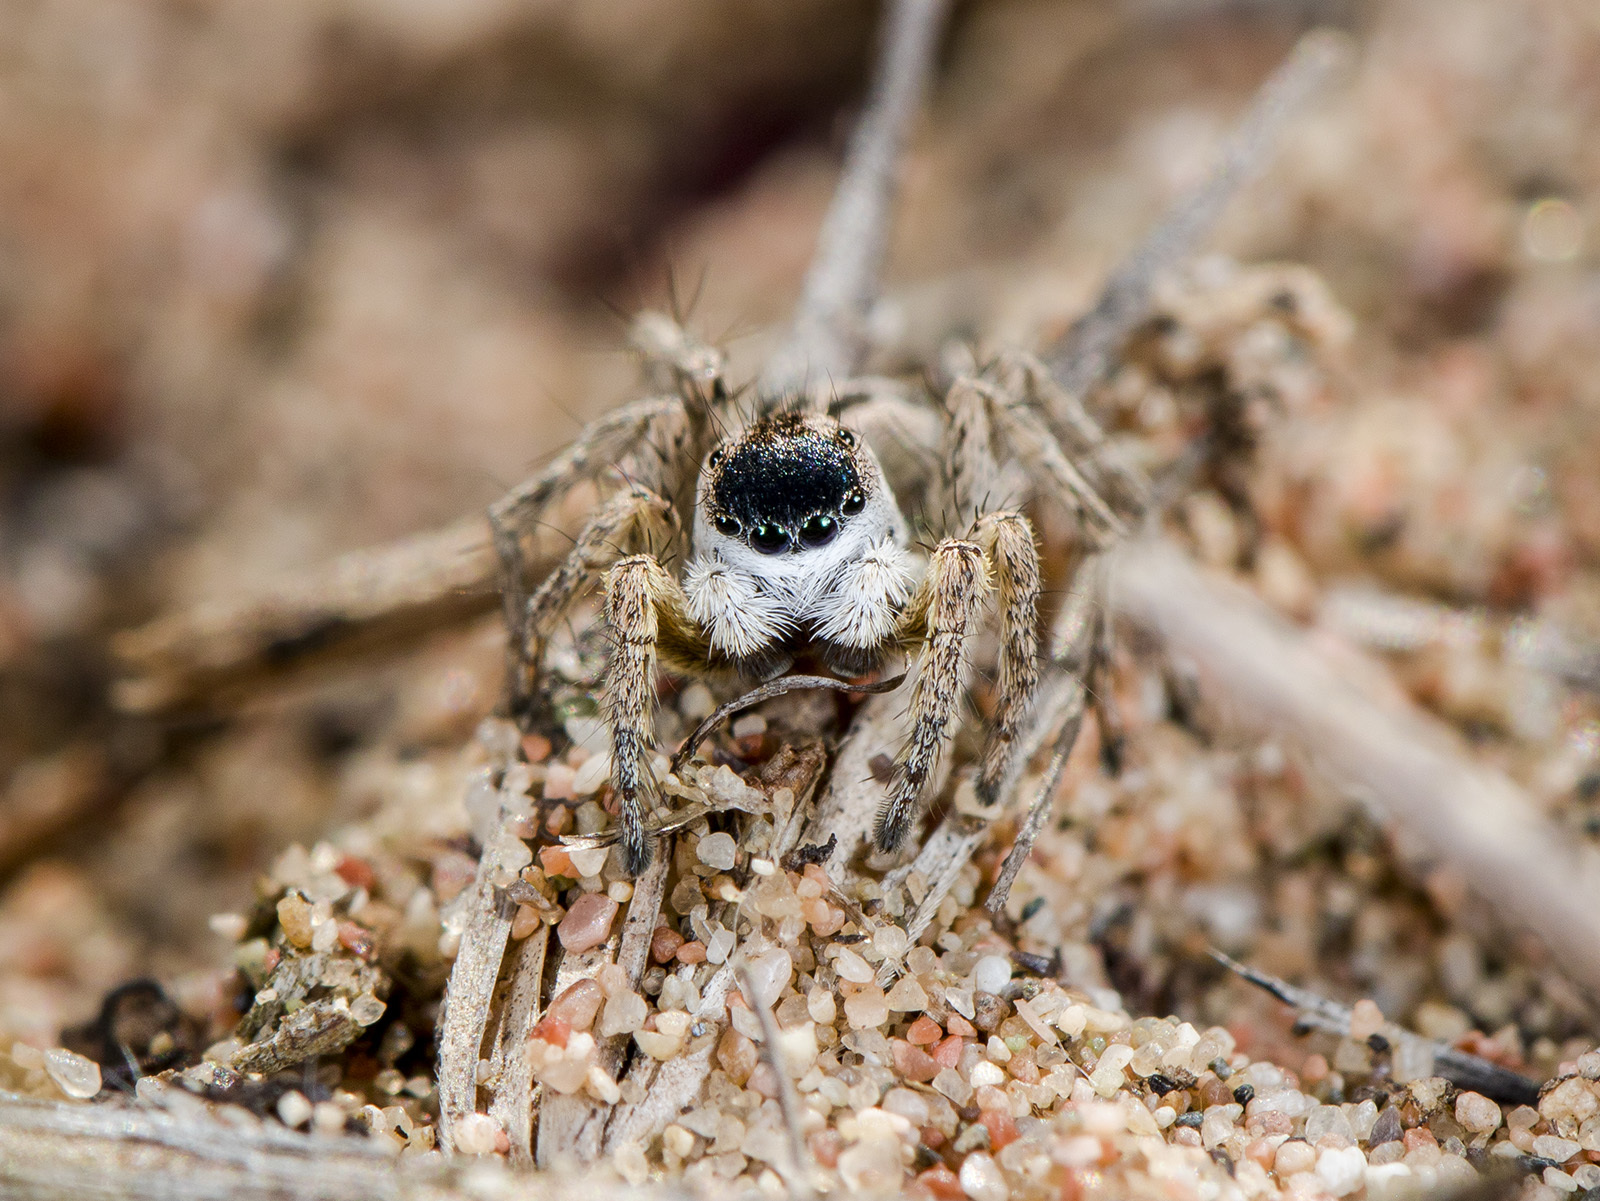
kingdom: Animalia
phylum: Arthropoda
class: Arachnida
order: Araneae
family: Salticidae
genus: Aelurillus
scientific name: Aelurillus m-nigrum
